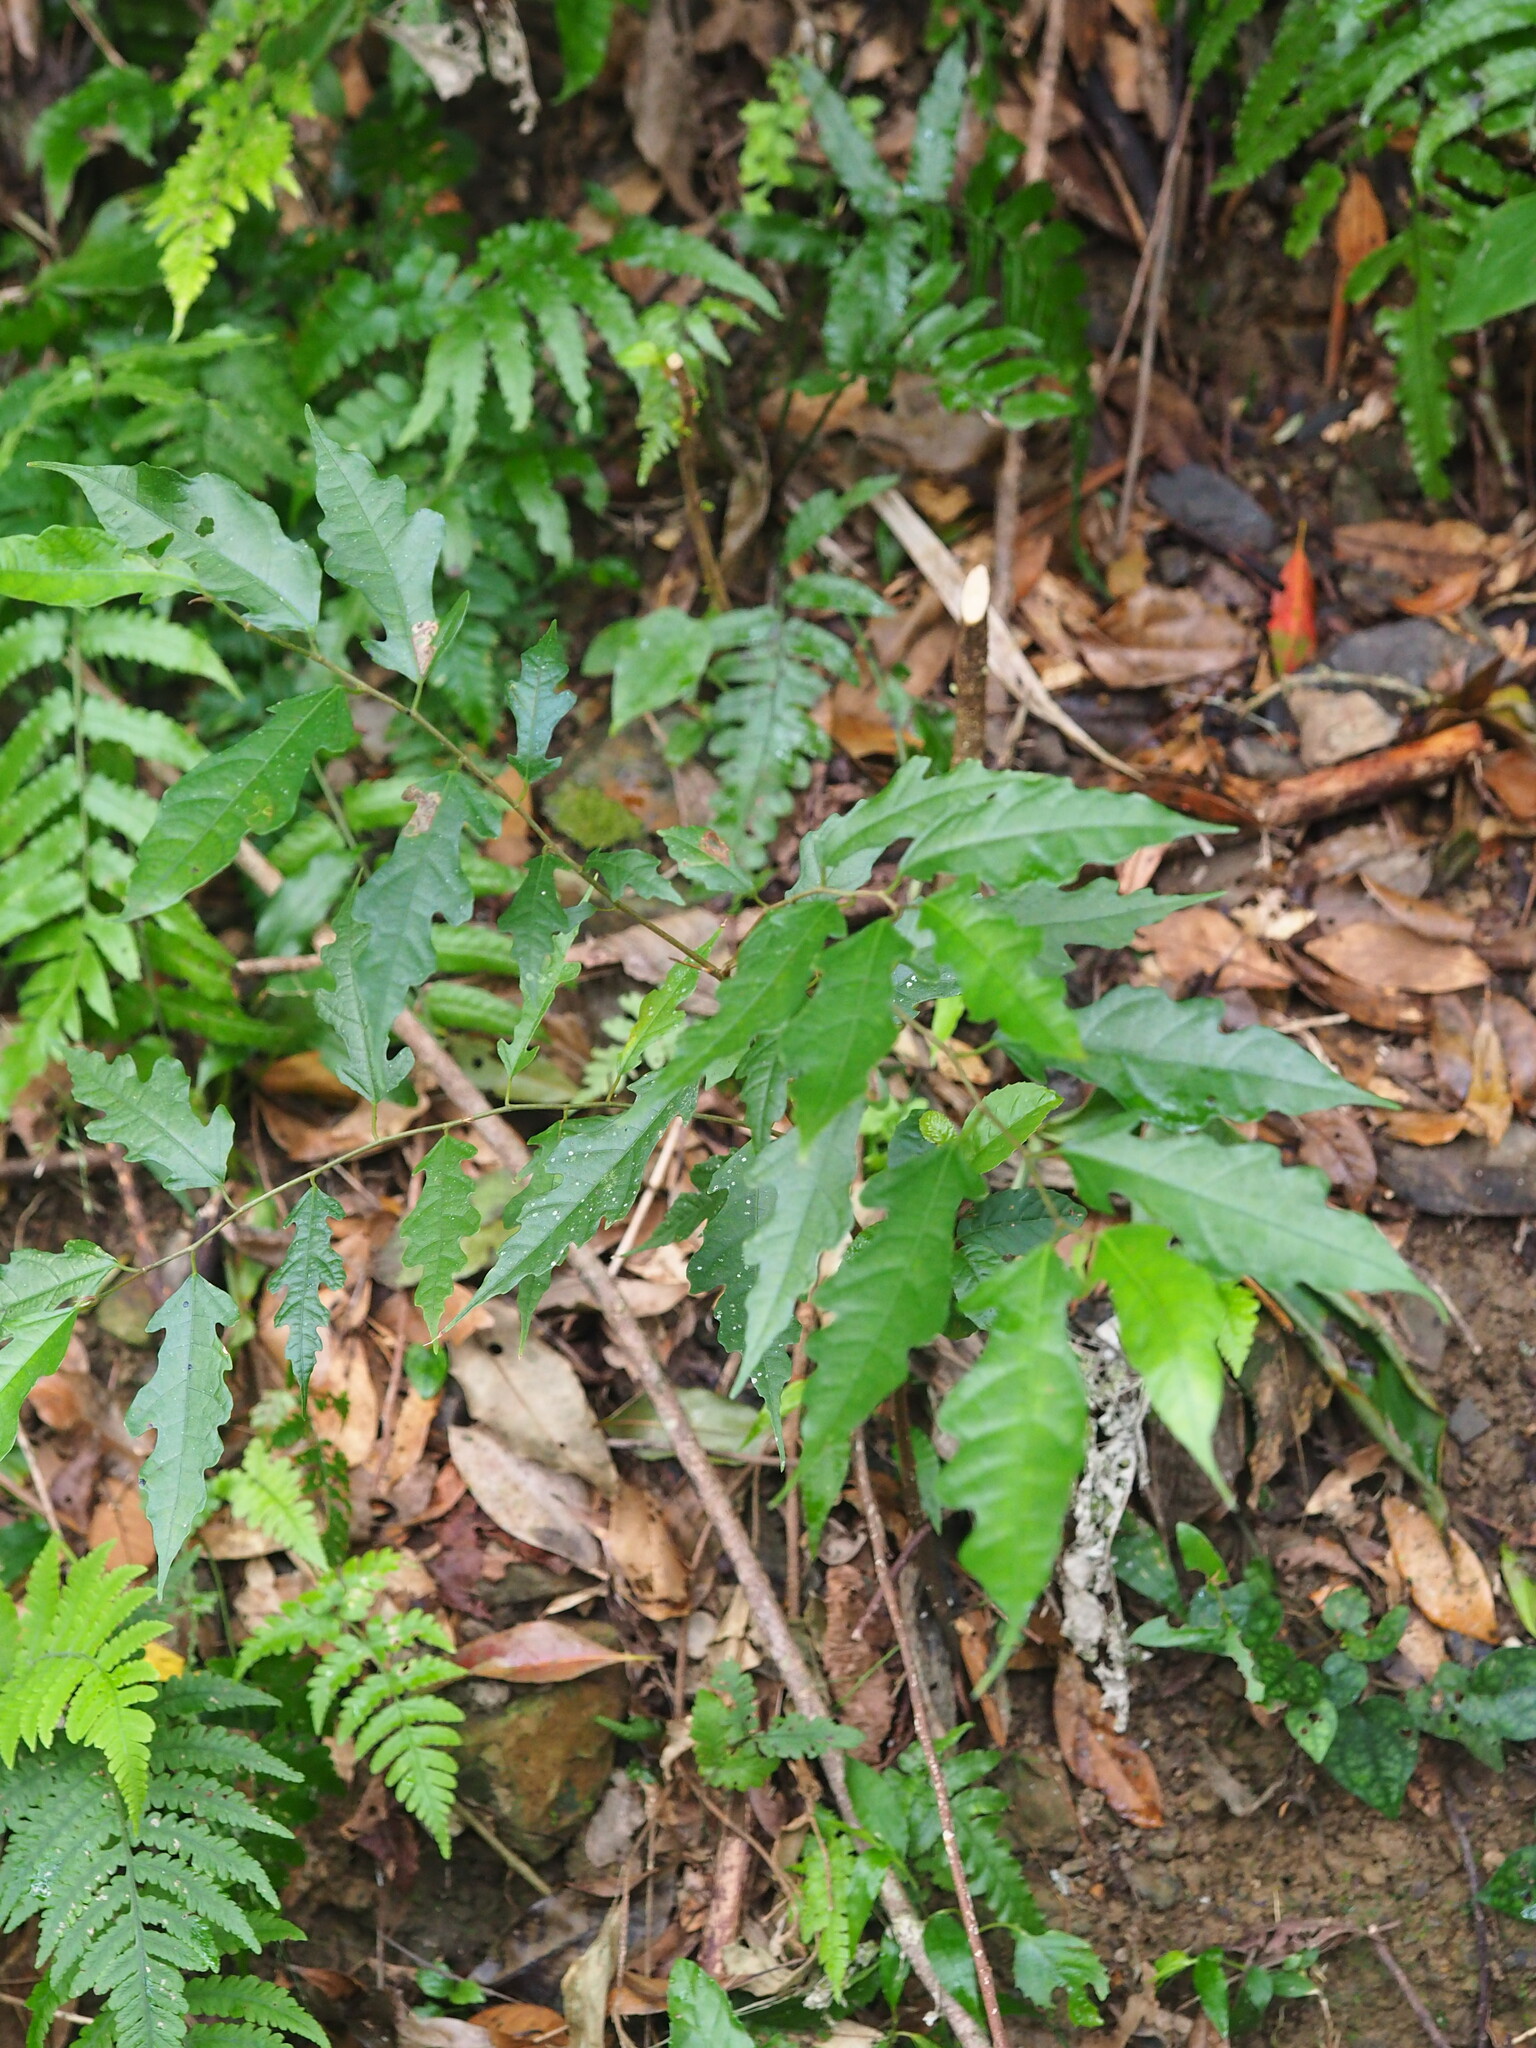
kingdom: Plantae
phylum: Tracheophyta
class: Magnoliopsida
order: Rosales
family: Moraceae
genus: Ficus
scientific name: Ficus ampelos
